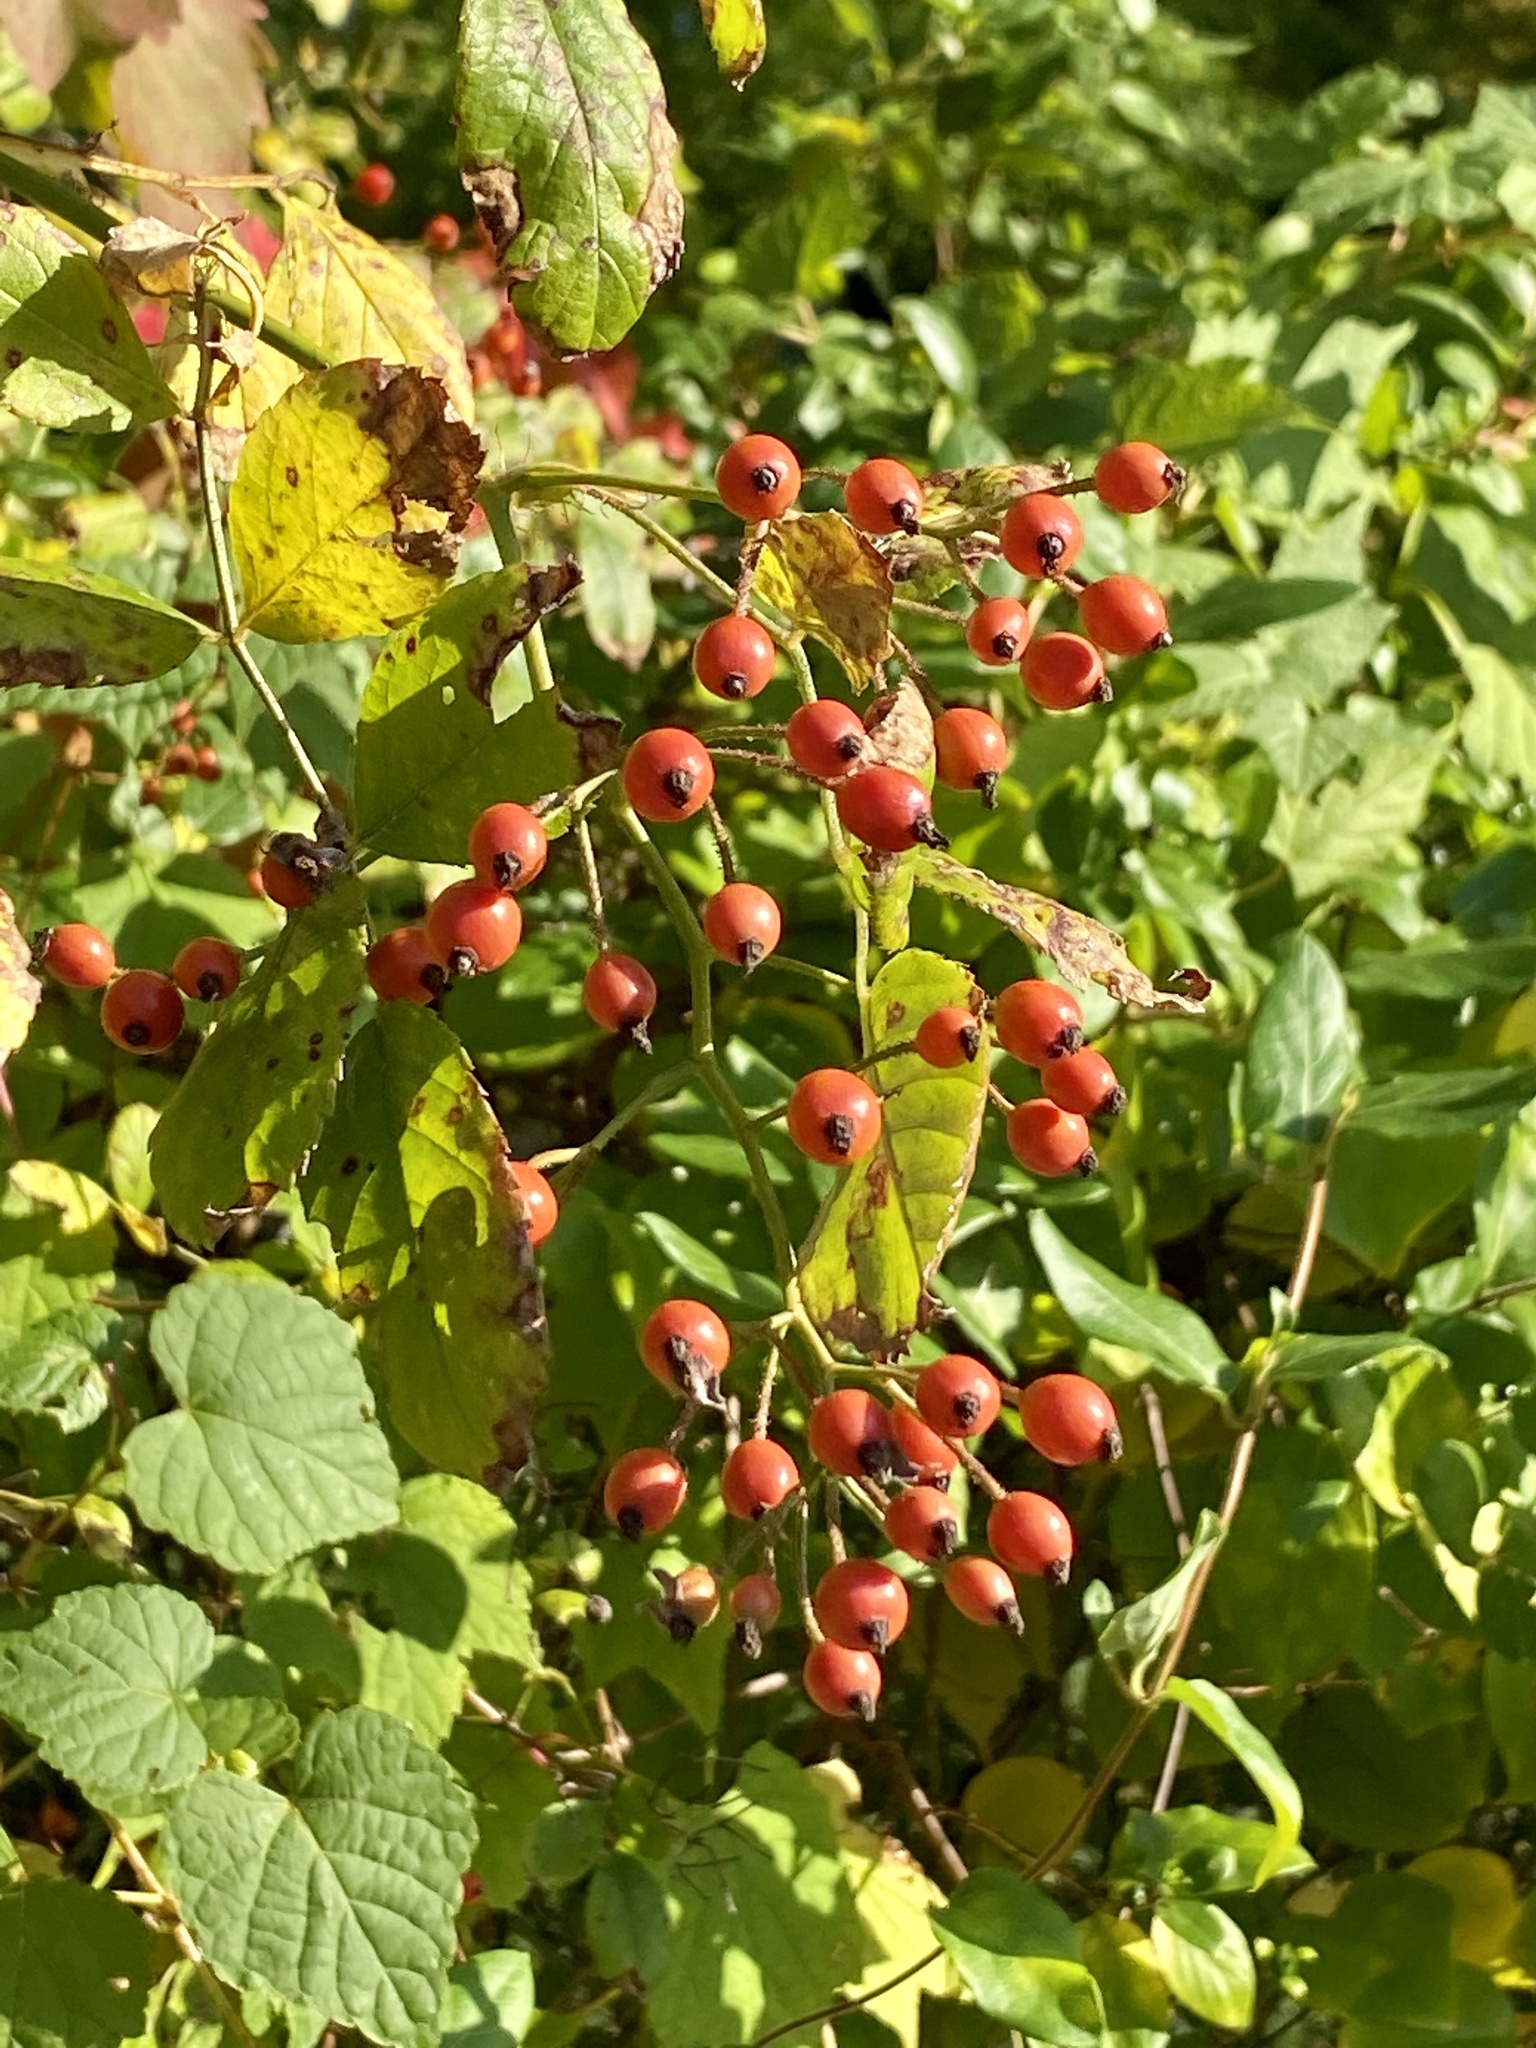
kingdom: Plantae
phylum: Tracheophyta
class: Magnoliopsida
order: Rosales
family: Rosaceae
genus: Rosa
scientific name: Rosa multiflora
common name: Multiflora rose
